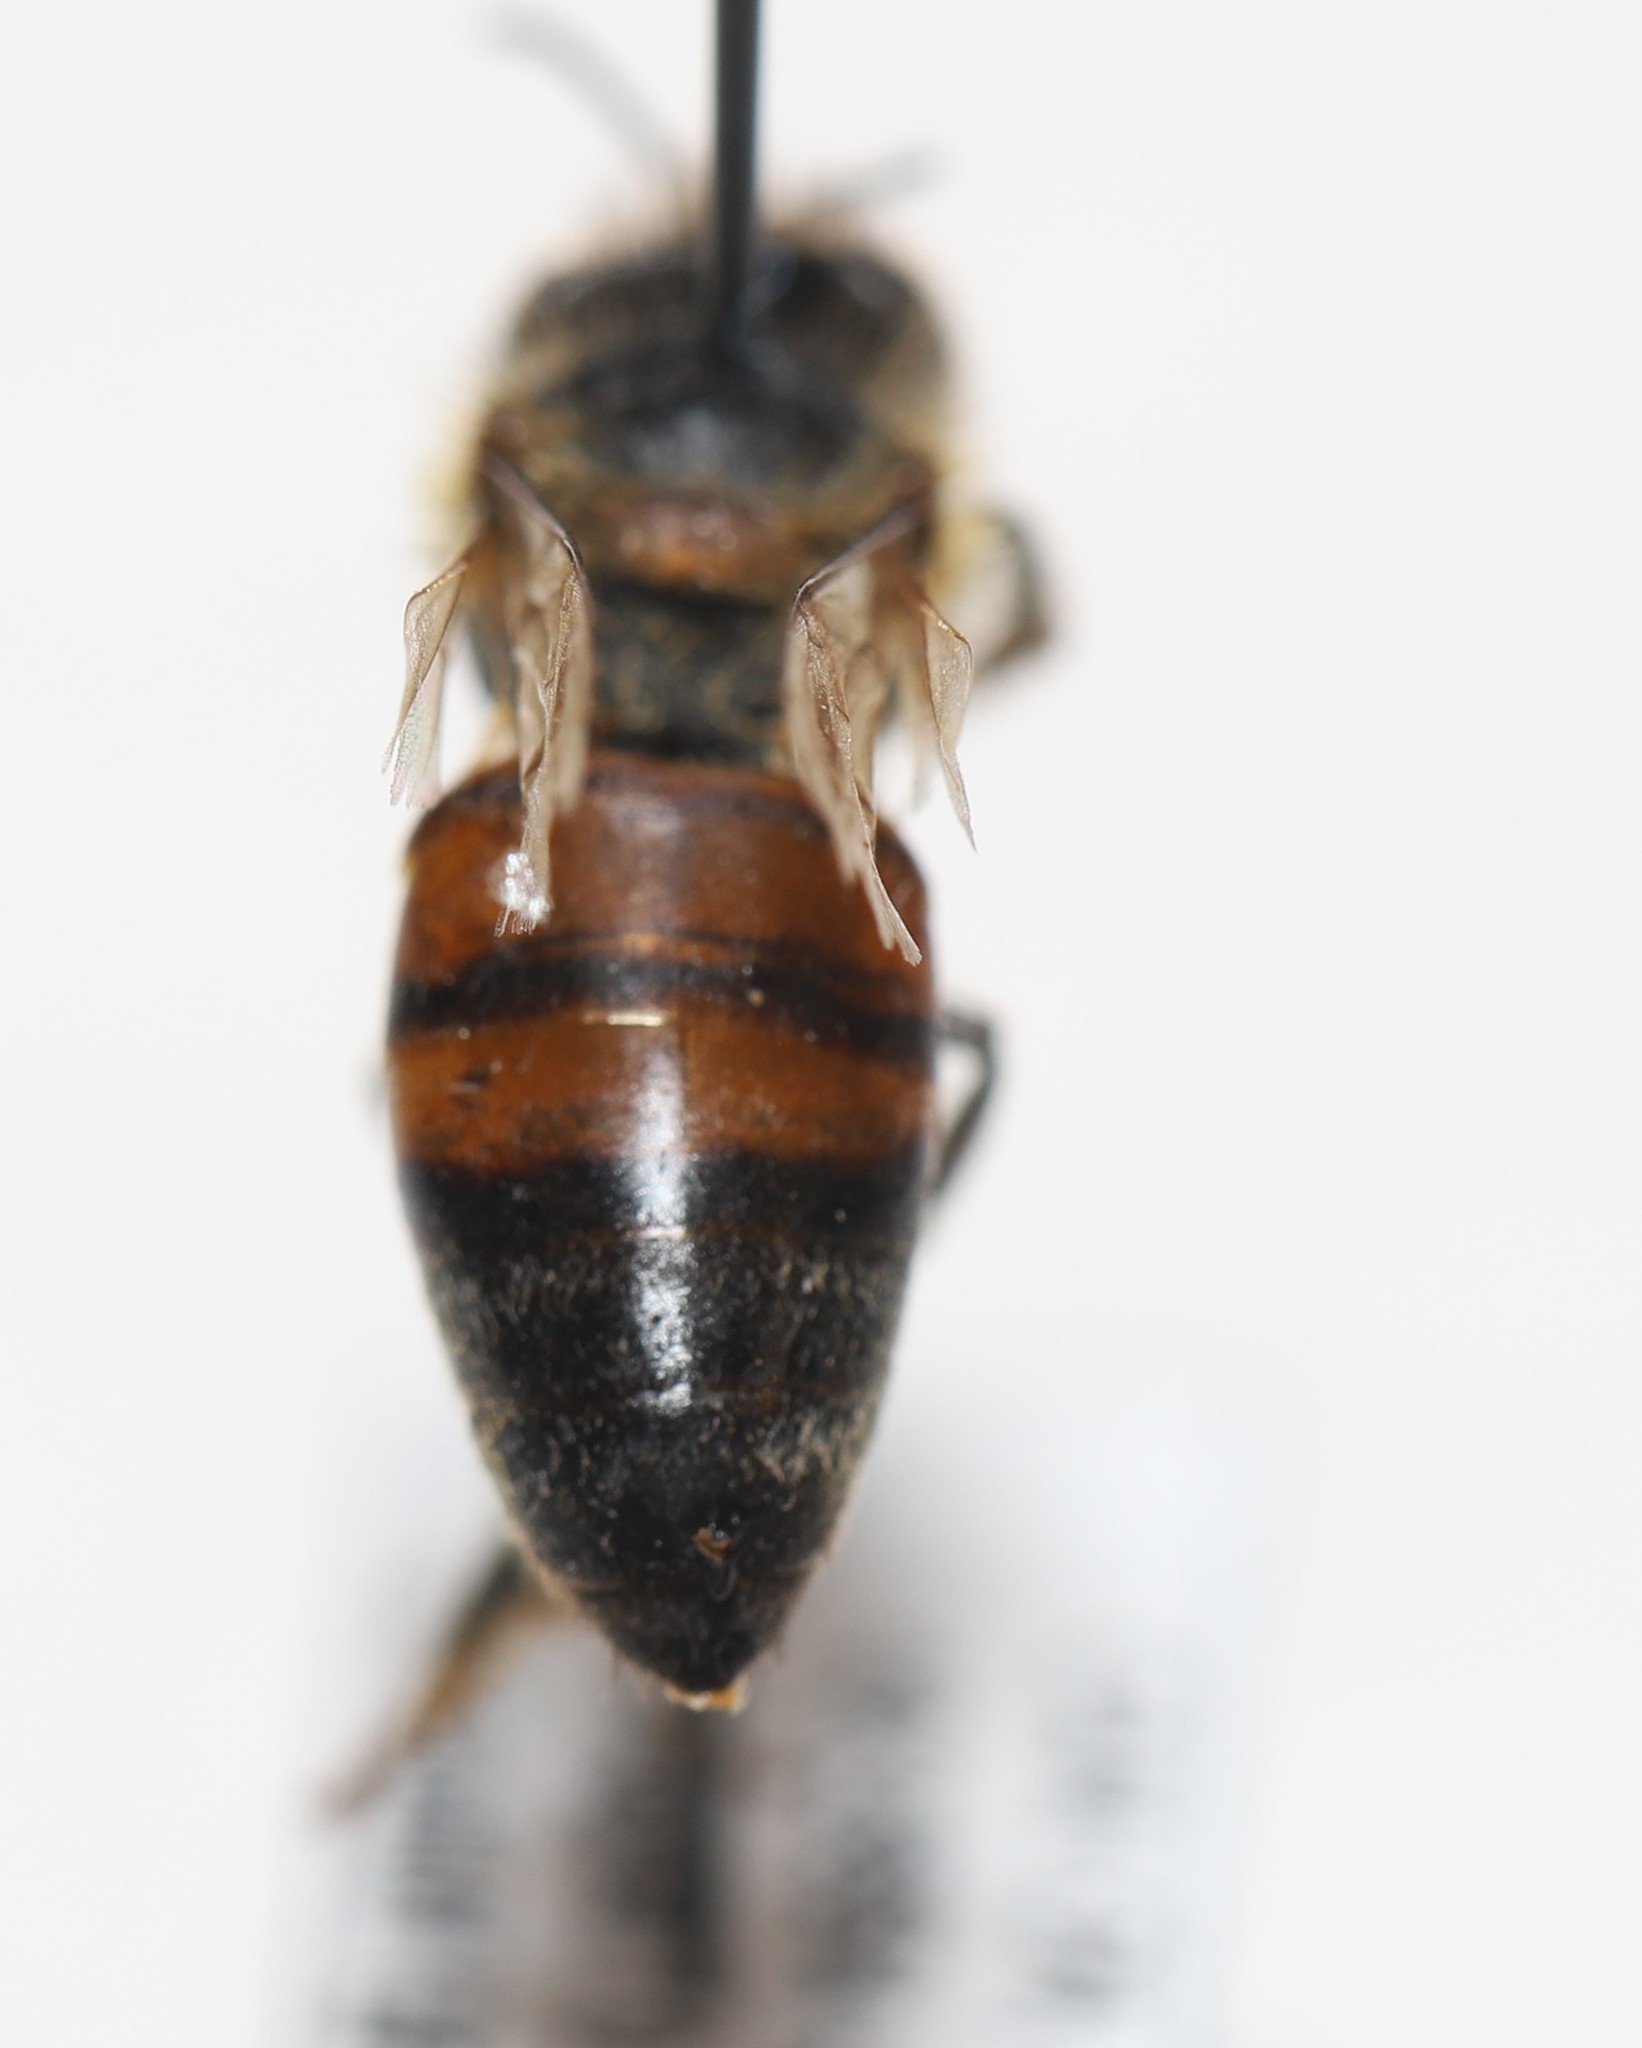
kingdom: Animalia
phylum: Arthropoda
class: Insecta
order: Hymenoptera
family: Apidae
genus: Apis
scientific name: Apis mellifera
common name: Honey bee
